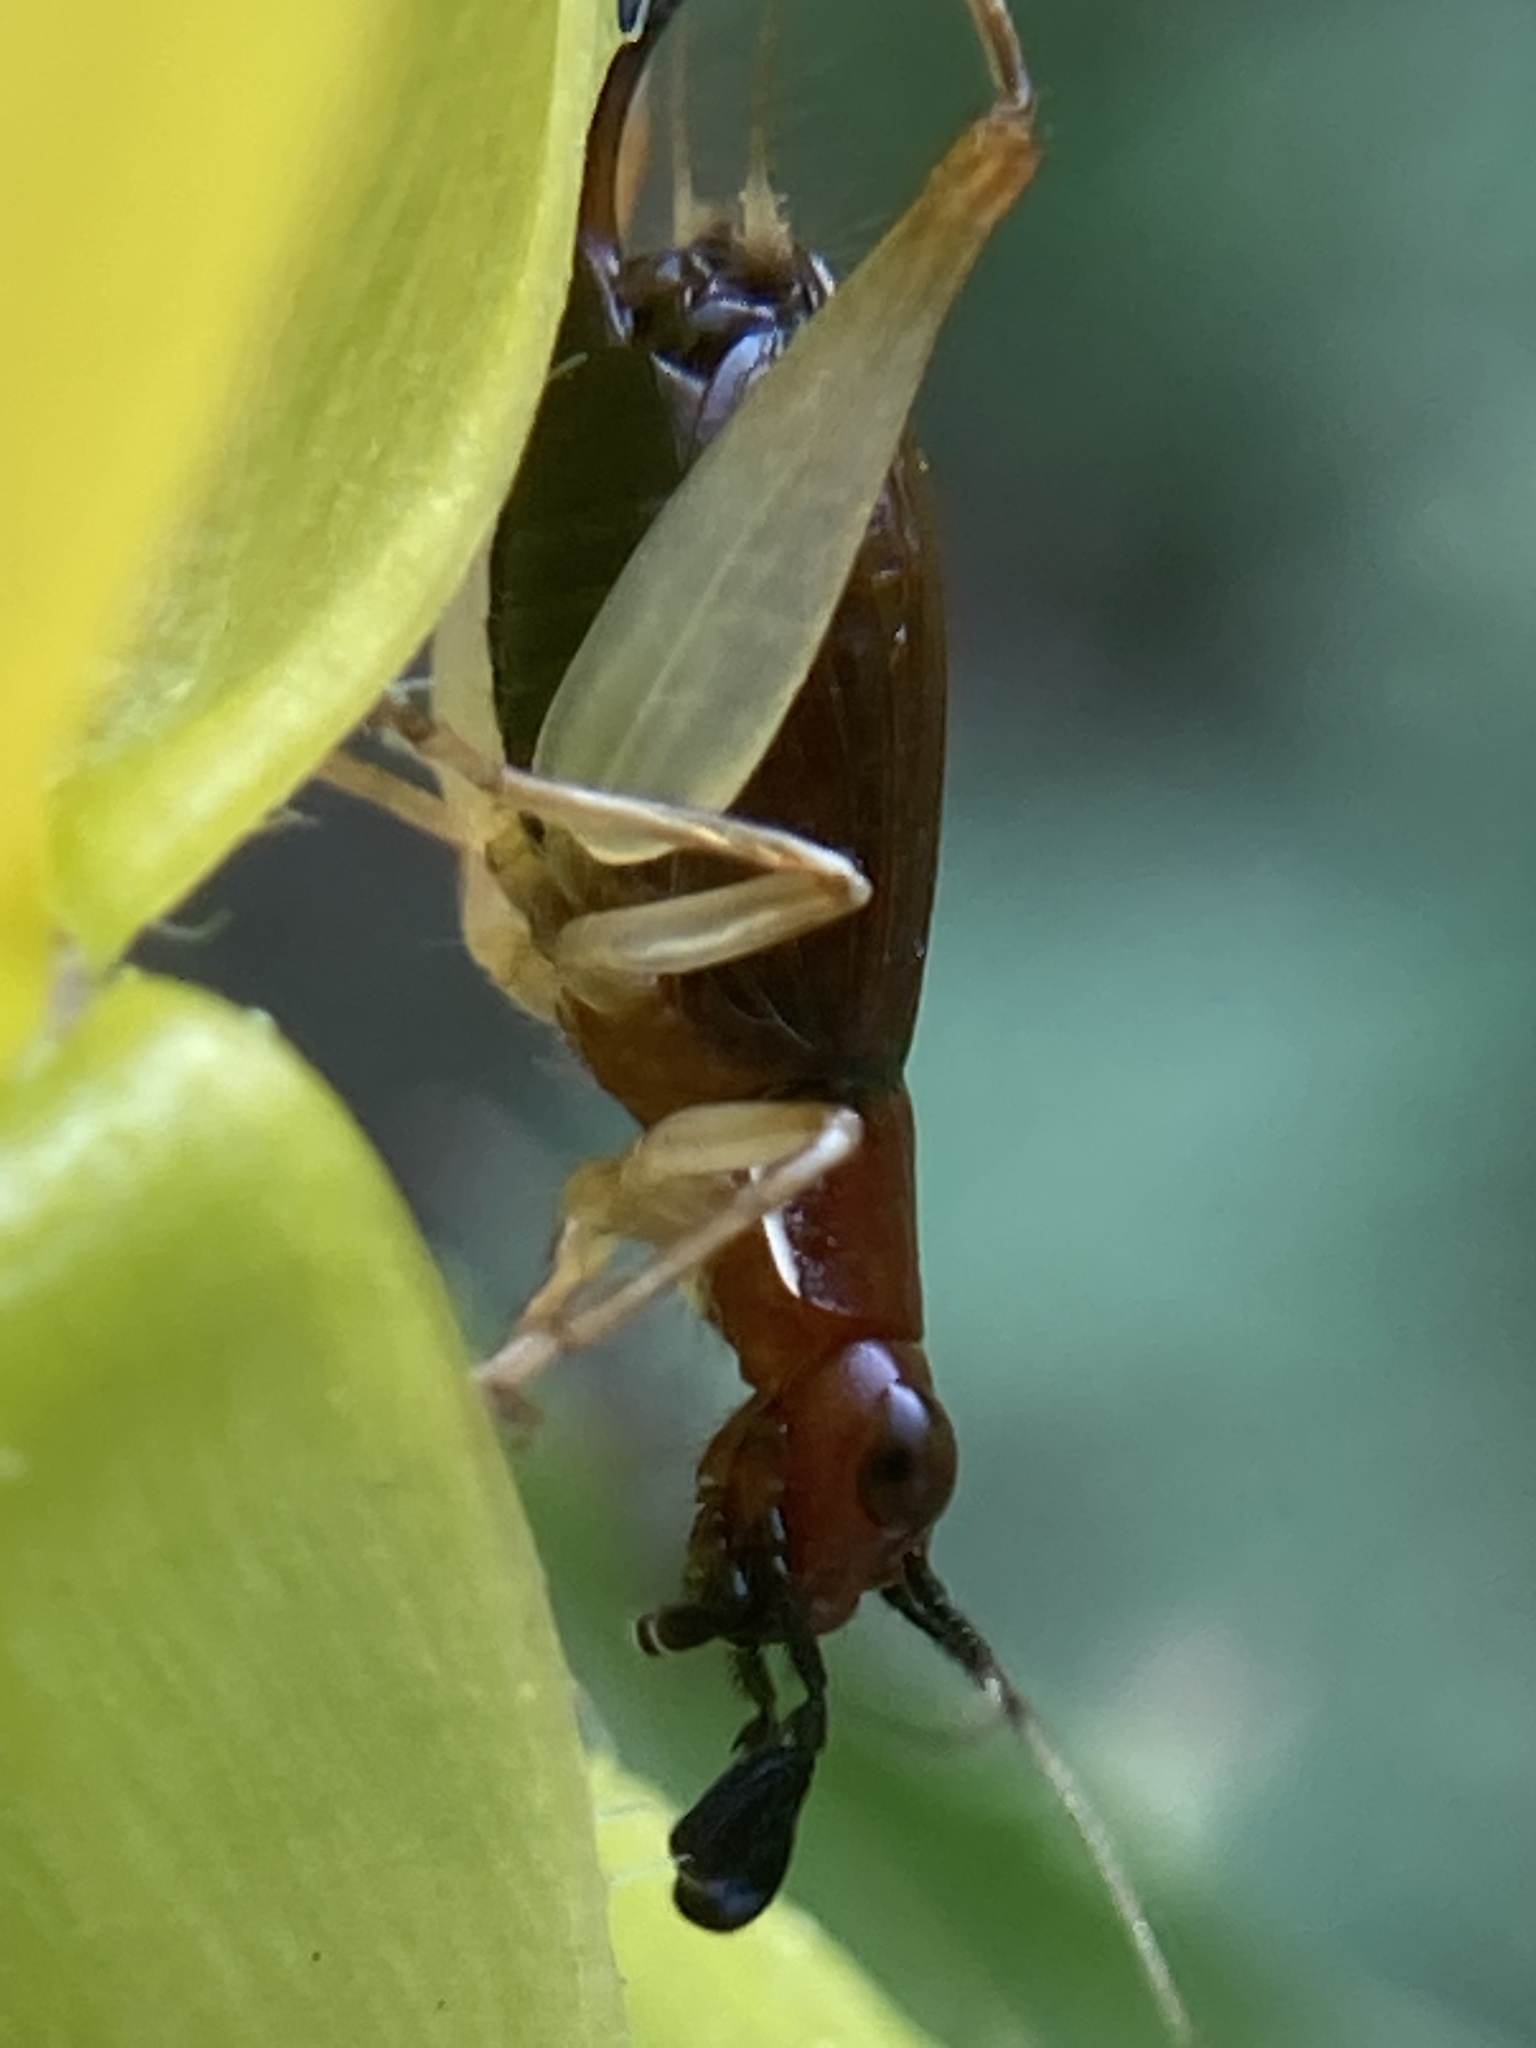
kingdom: Animalia
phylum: Arthropoda
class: Insecta
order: Orthoptera
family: Trigonidiidae
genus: Phyllopalpus
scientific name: Phyllopalpus pulchellus
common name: Handsome trig
